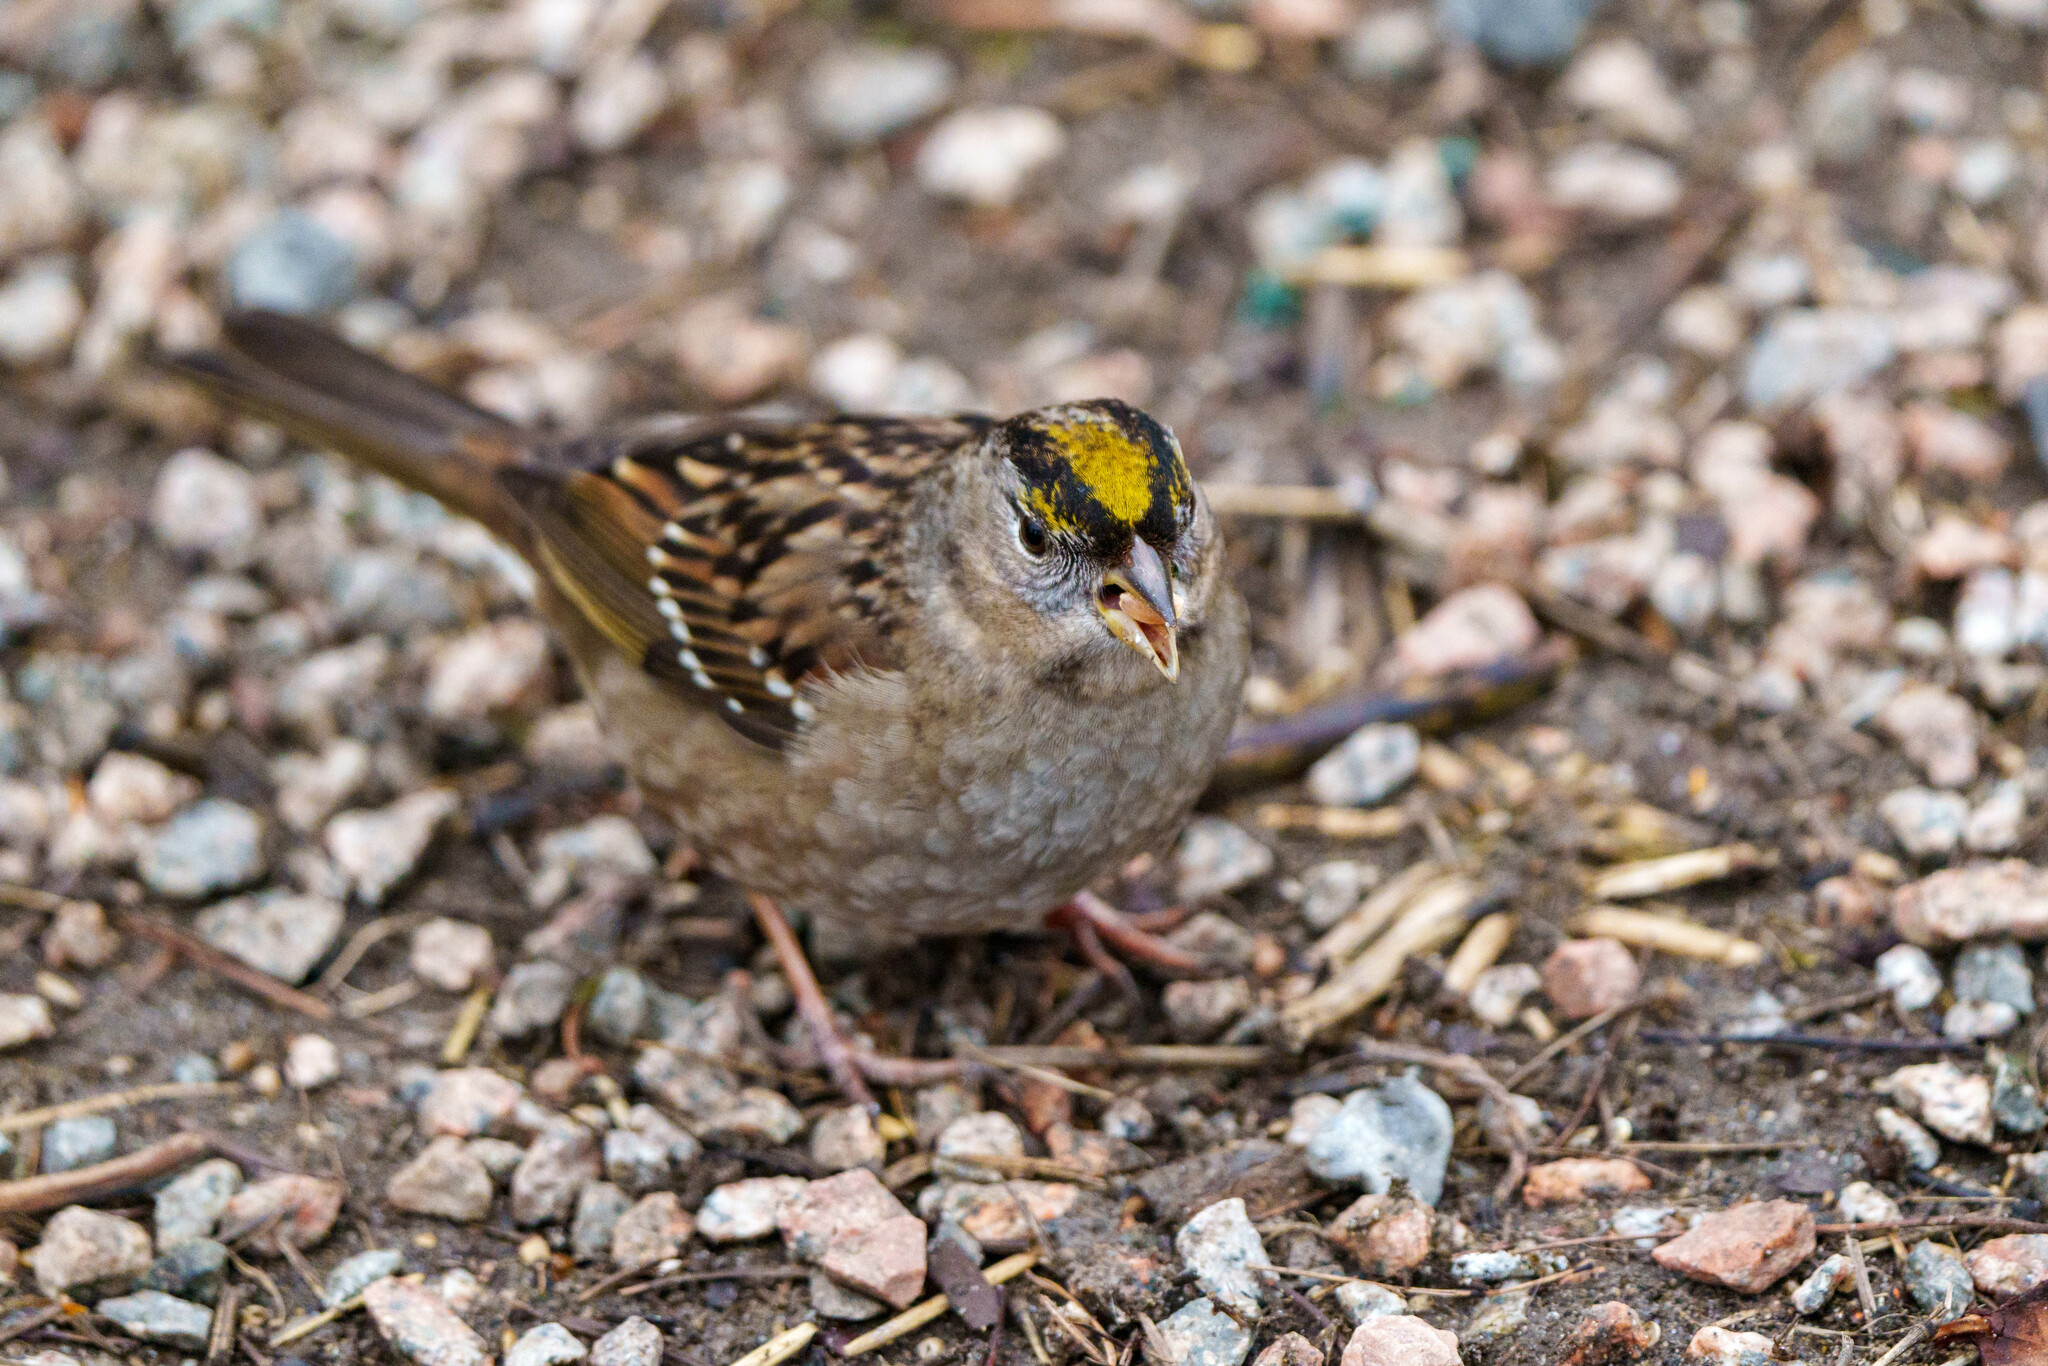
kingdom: Animalia
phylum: Chordata
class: Aves
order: Passeriformes
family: Passerellidae
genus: Zonotrichia
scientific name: Zonotrichia atricapilla
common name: Golden-crowned sparrow
